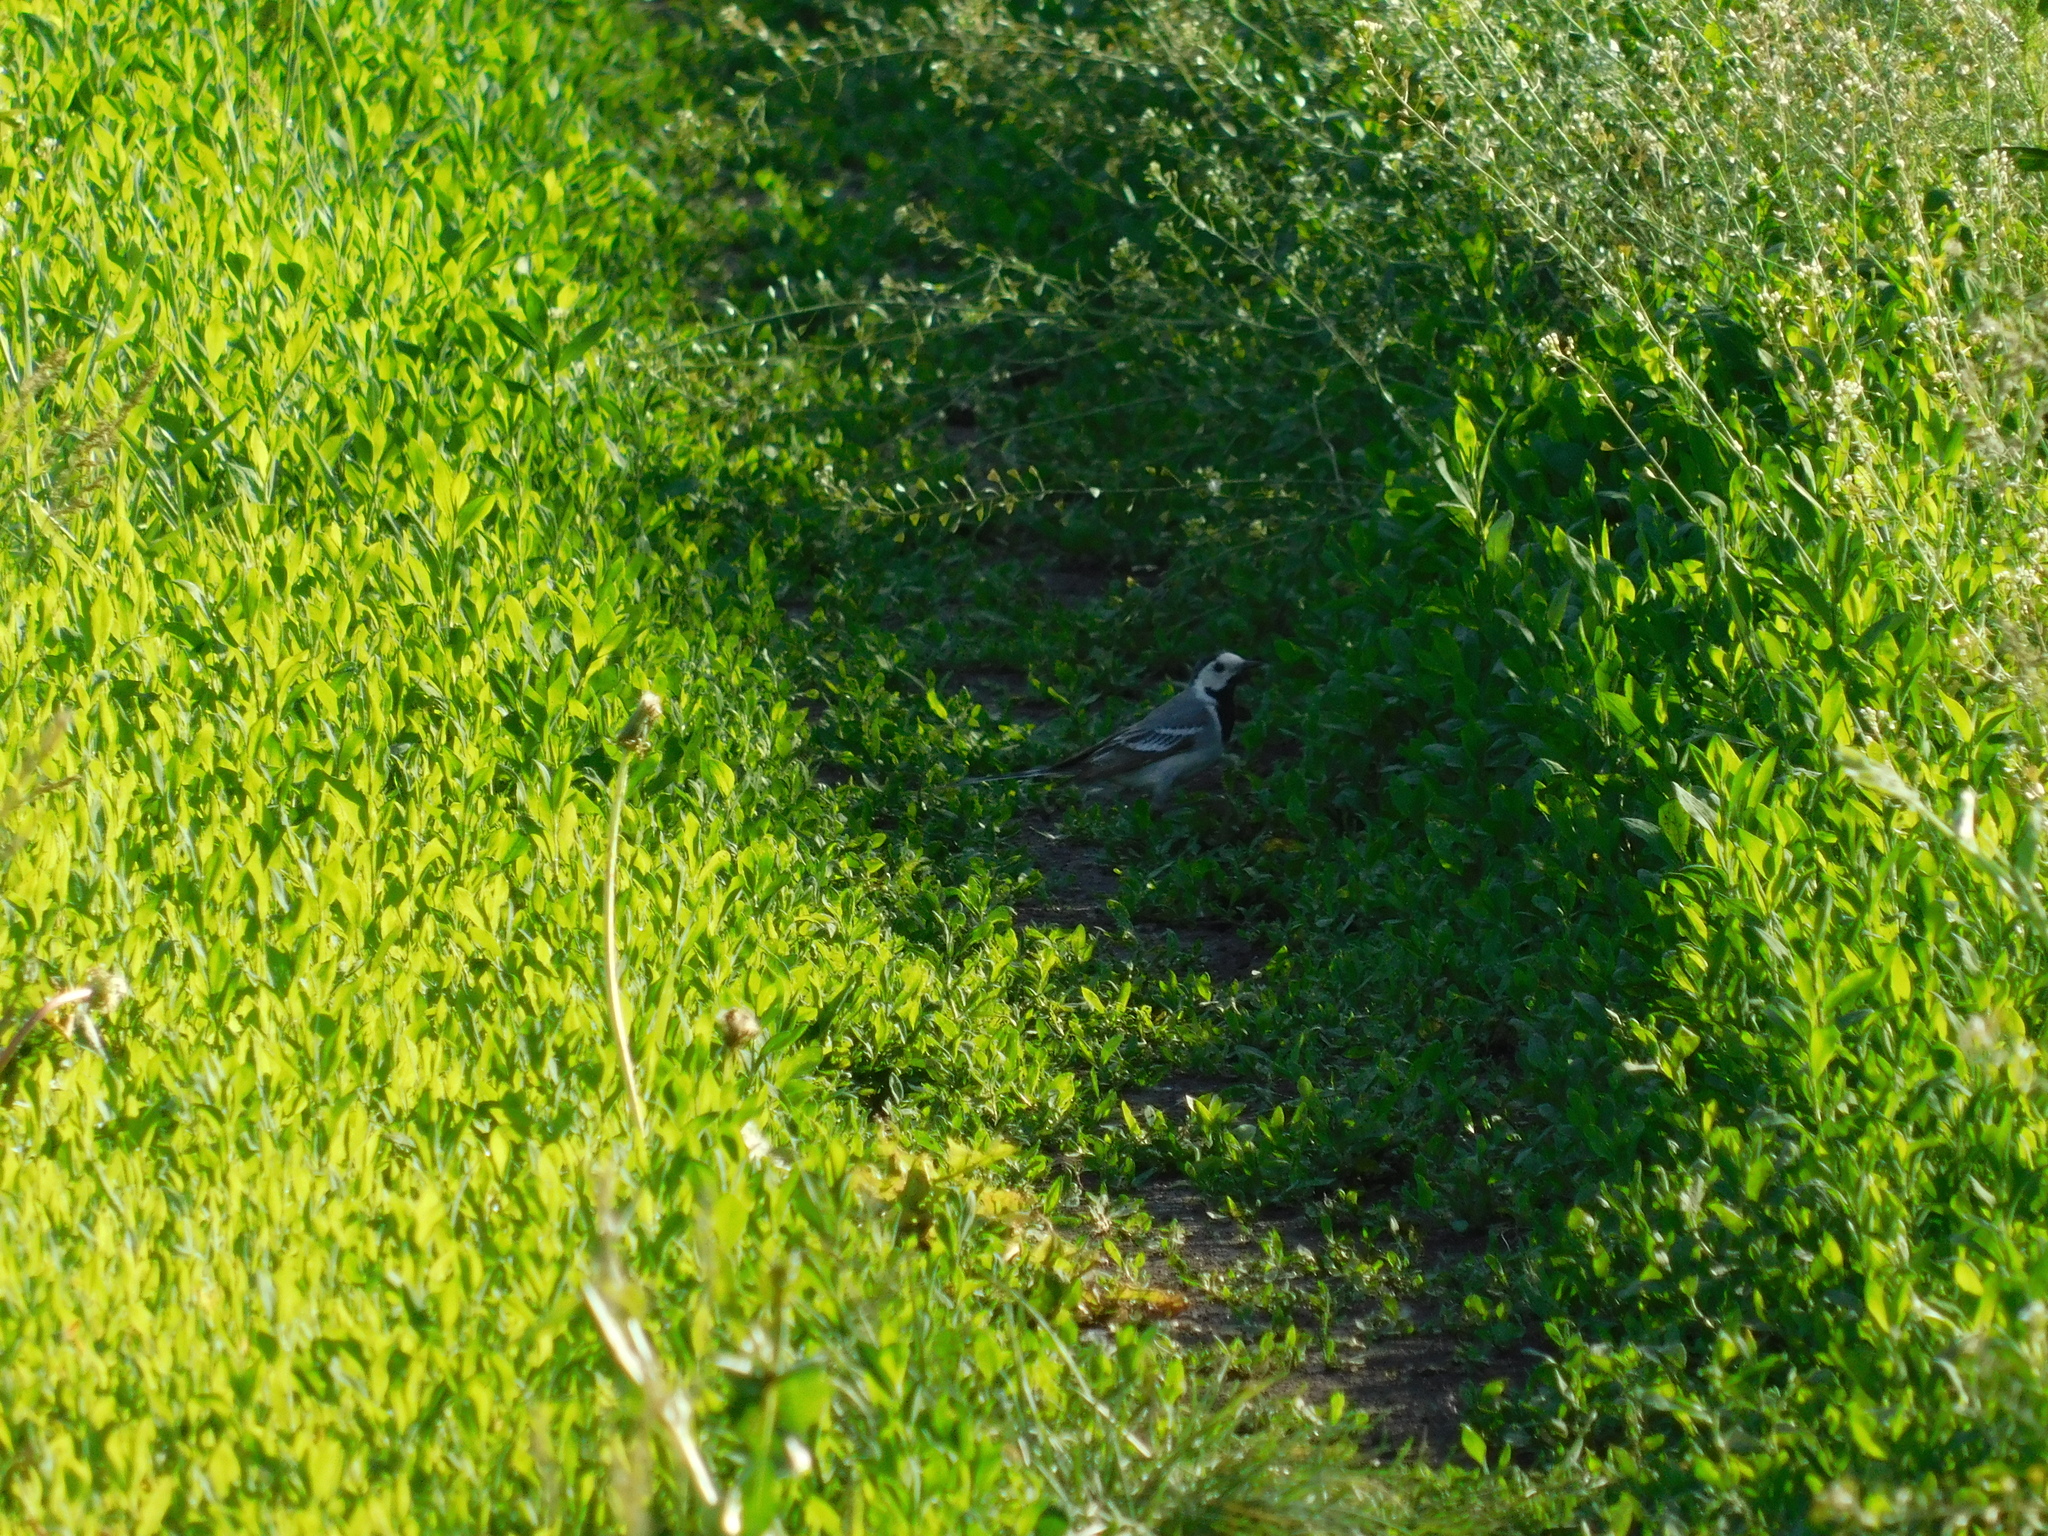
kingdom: Animalia
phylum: Chordata
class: Aves
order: Passeriformes
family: Motacillidae
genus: Motacilla
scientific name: Motacilla alba
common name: White wagtail
